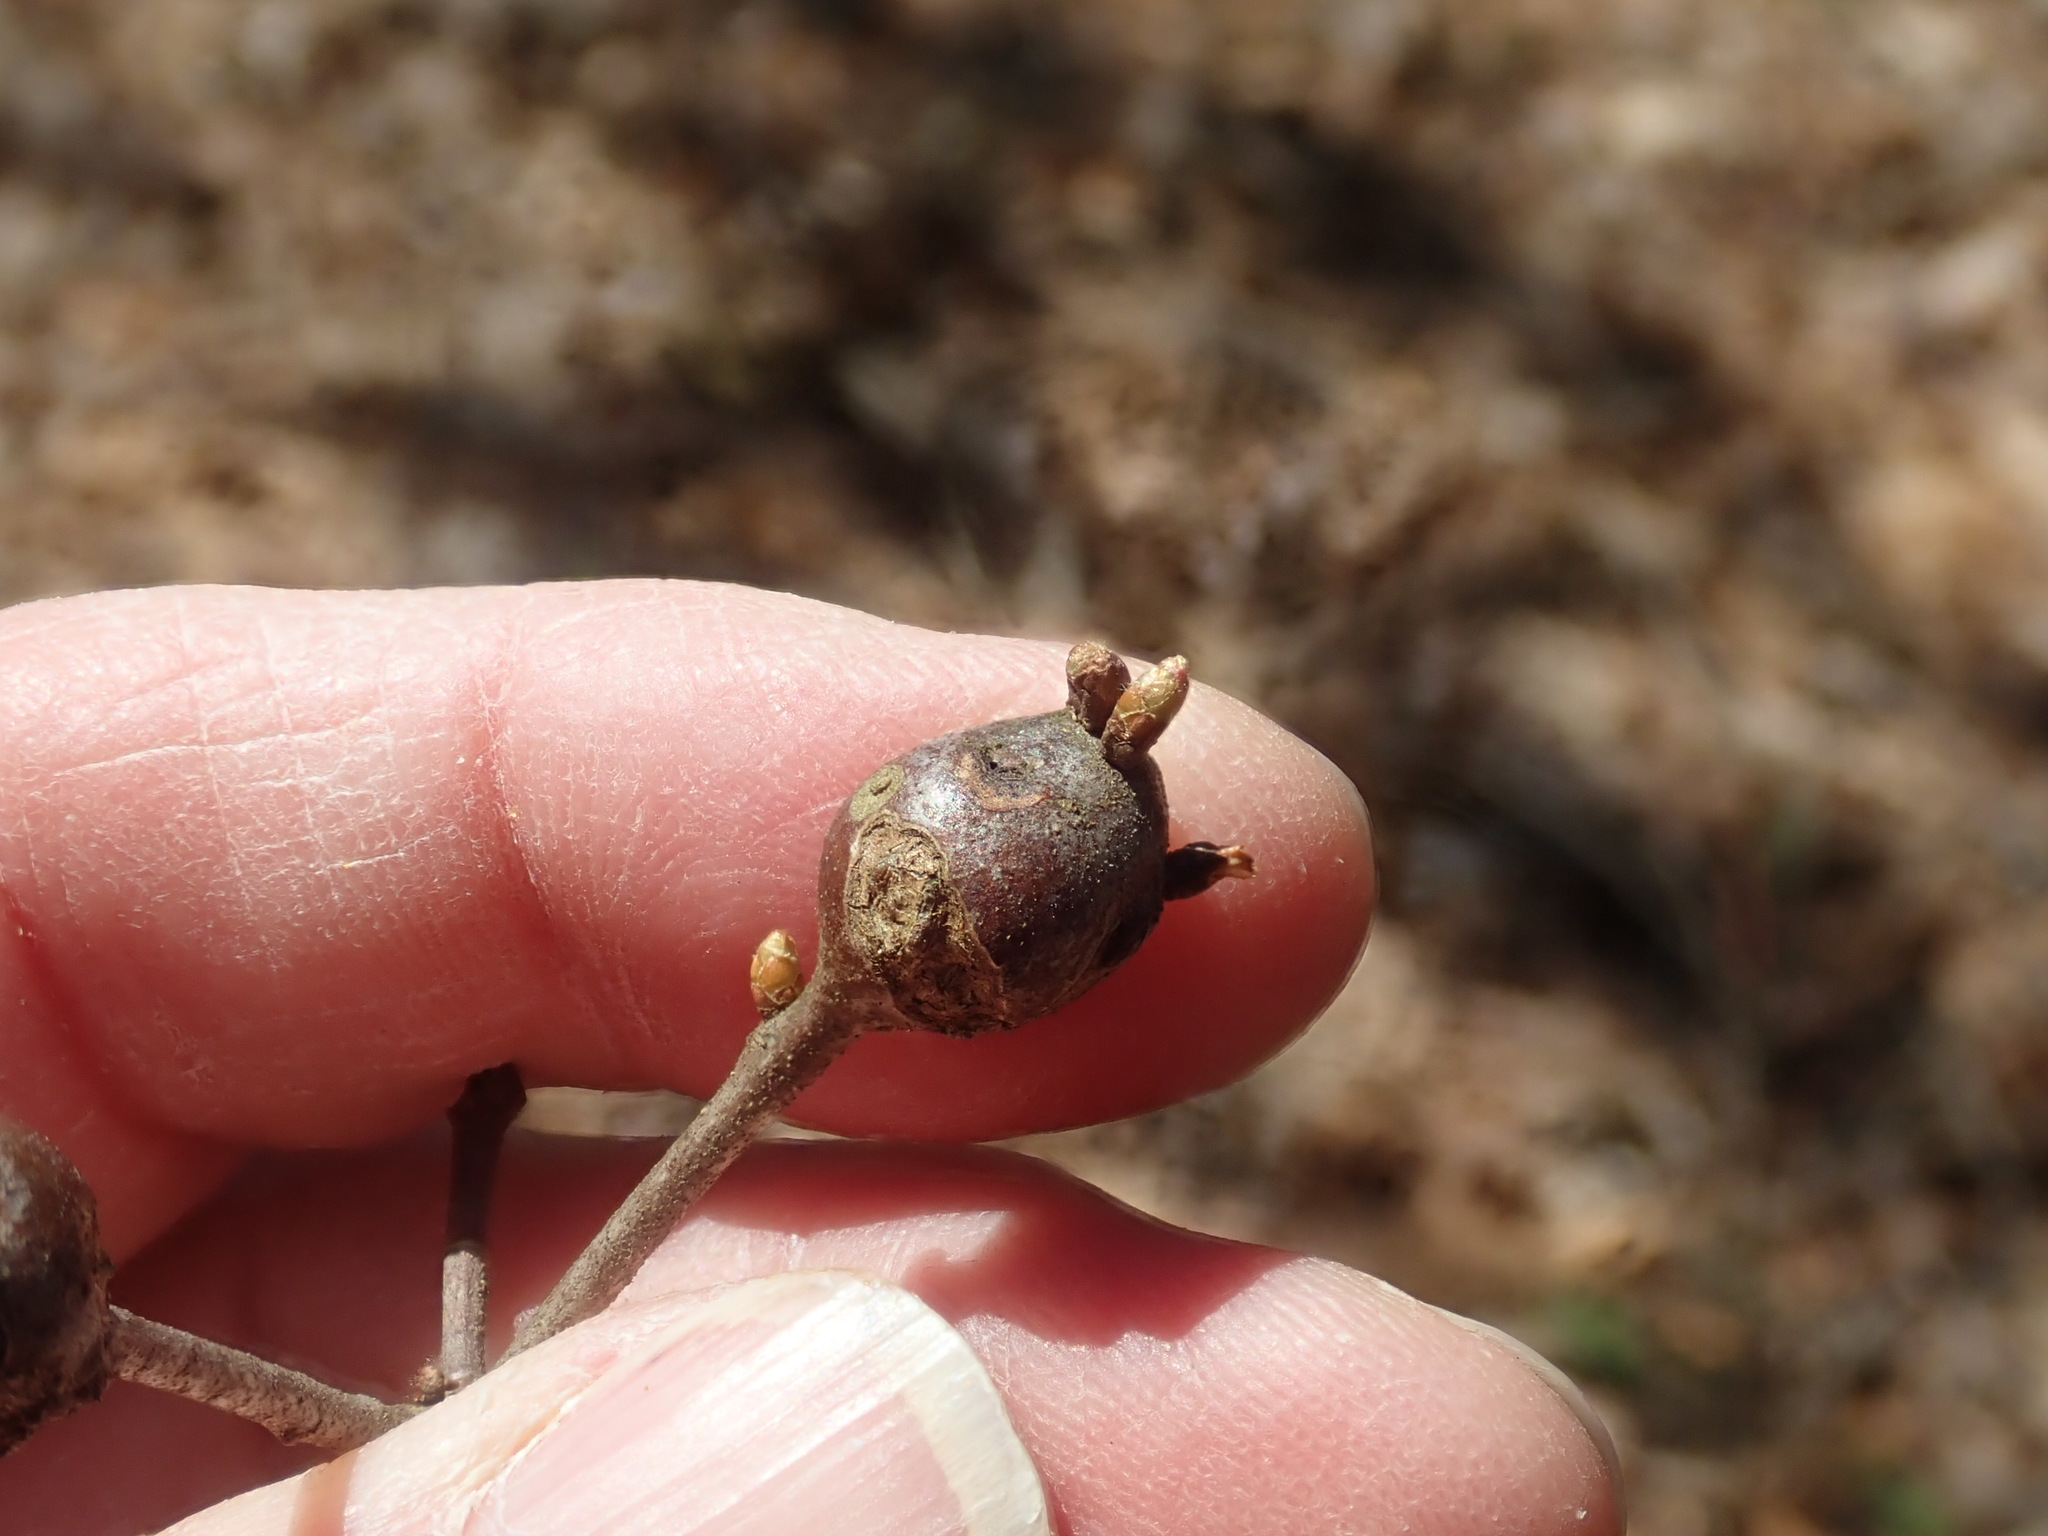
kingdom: Animalia
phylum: Arthropoda
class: Insecta
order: Hymenoptera
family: Cynipidae
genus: Callirhytis
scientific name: Callirhytis clavula
